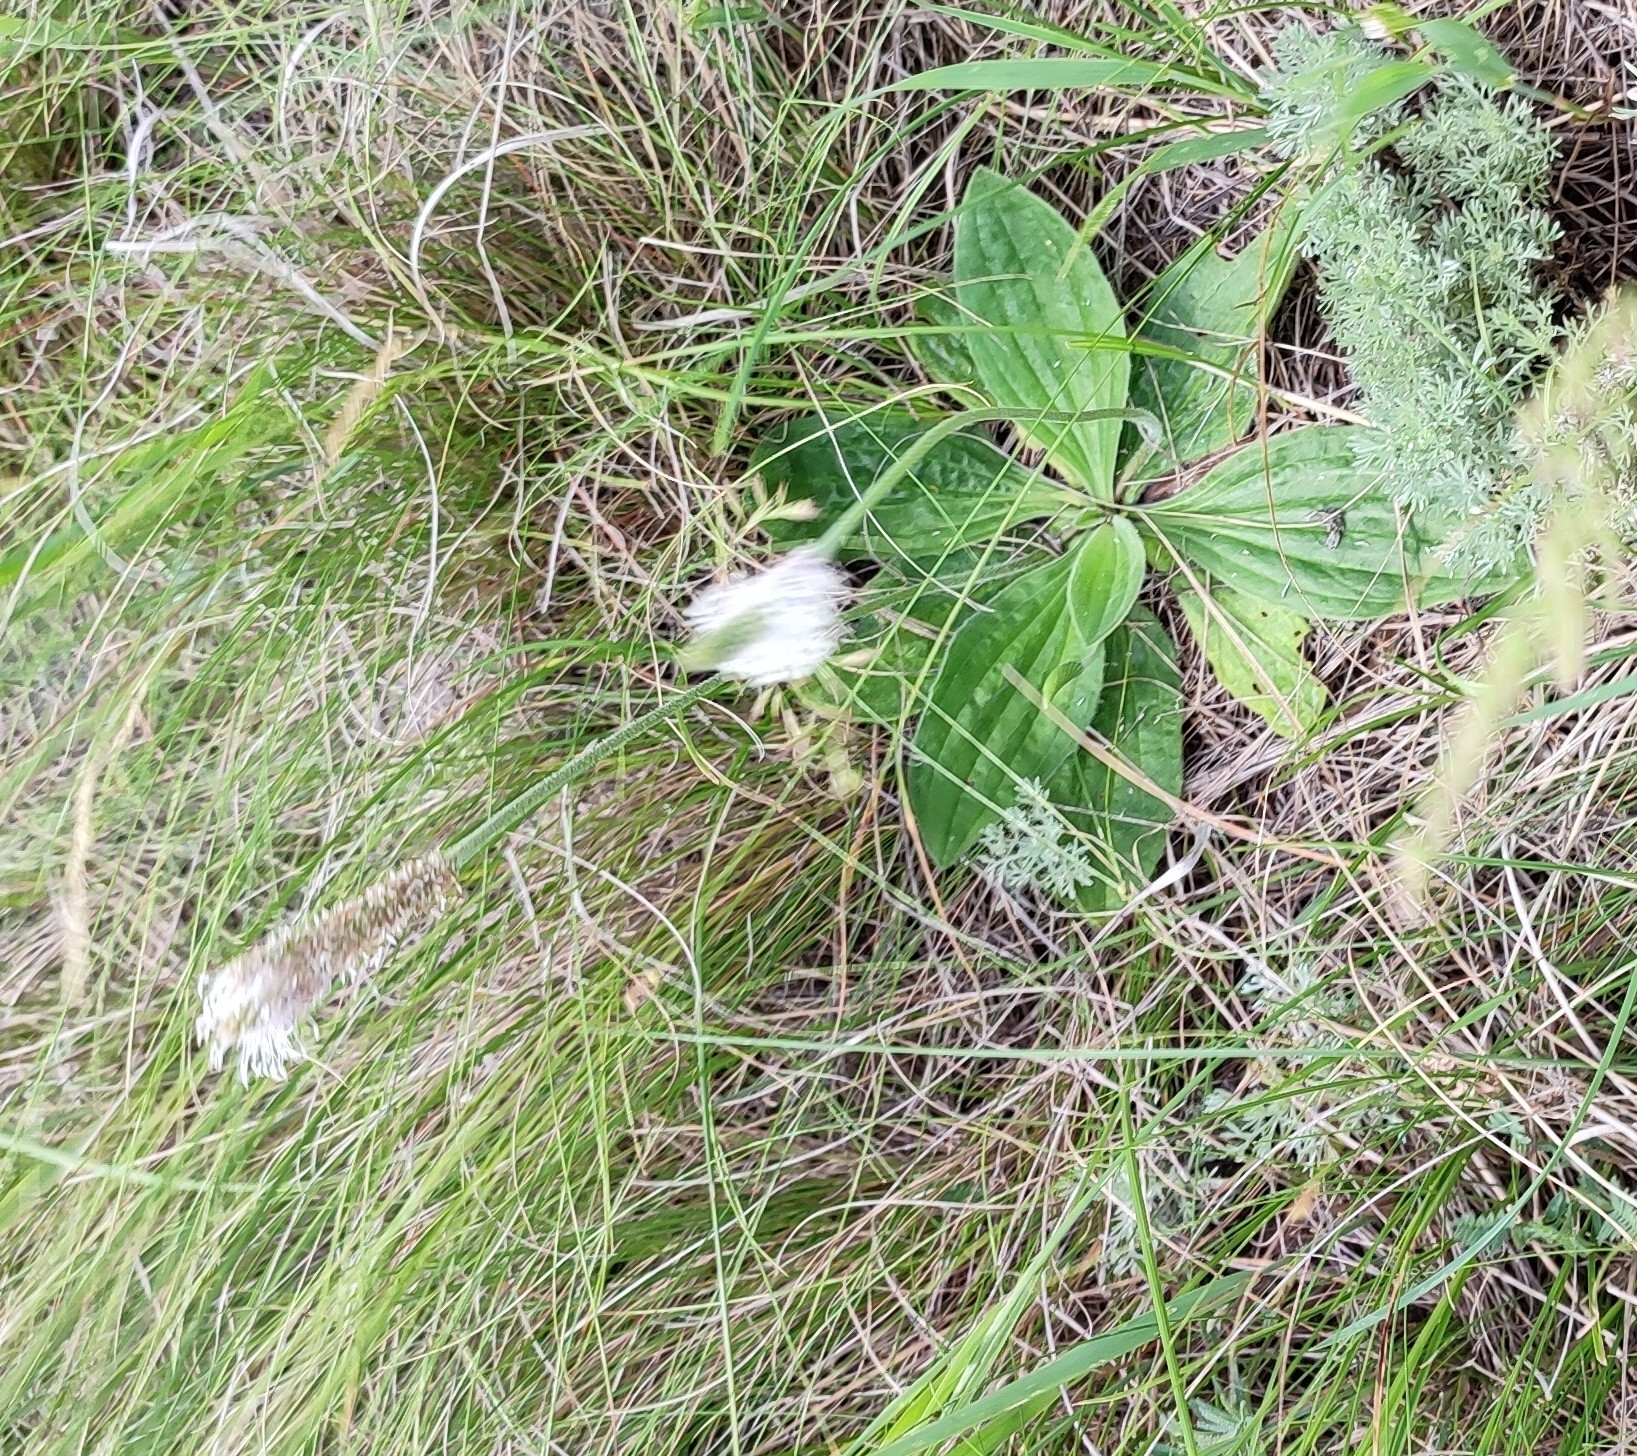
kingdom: Plantae
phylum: Tracheophyta
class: Magnoliopsida
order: Lamiales
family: Plantaginaceae
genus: Plantago
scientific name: Plantago media
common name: Hoary plantain
